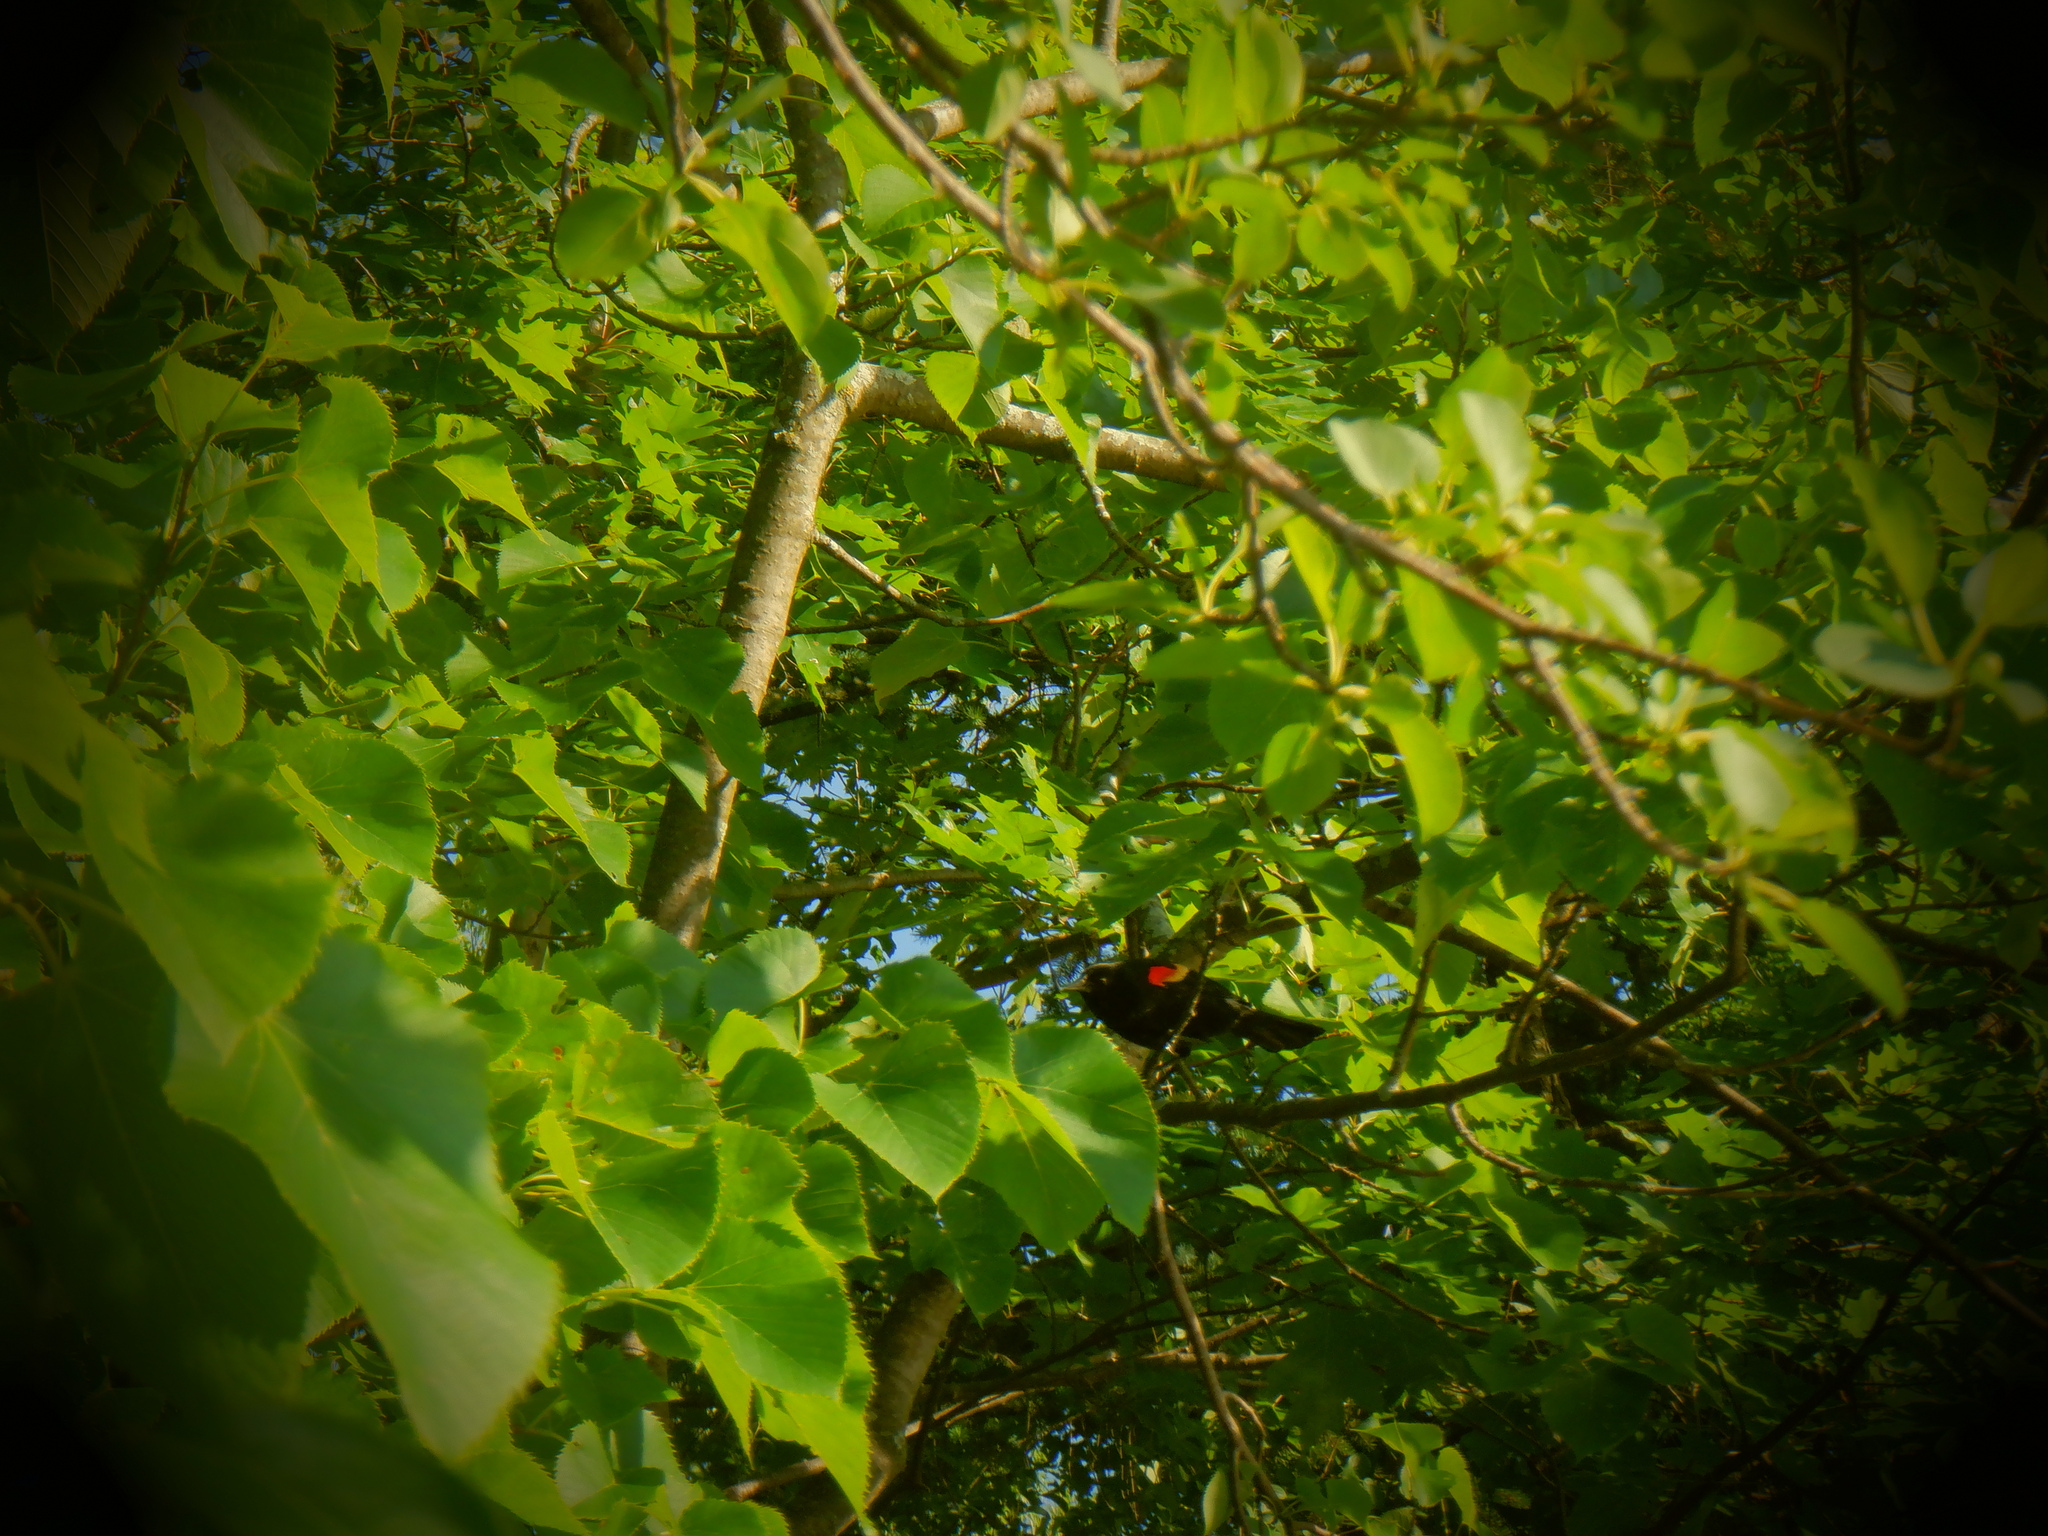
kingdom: Animalia
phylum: Chordata
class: Aves
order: Passeriformes
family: Icteridae
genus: Agelaius
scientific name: Agelaius phoeniceus
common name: Red-winged blackbird
